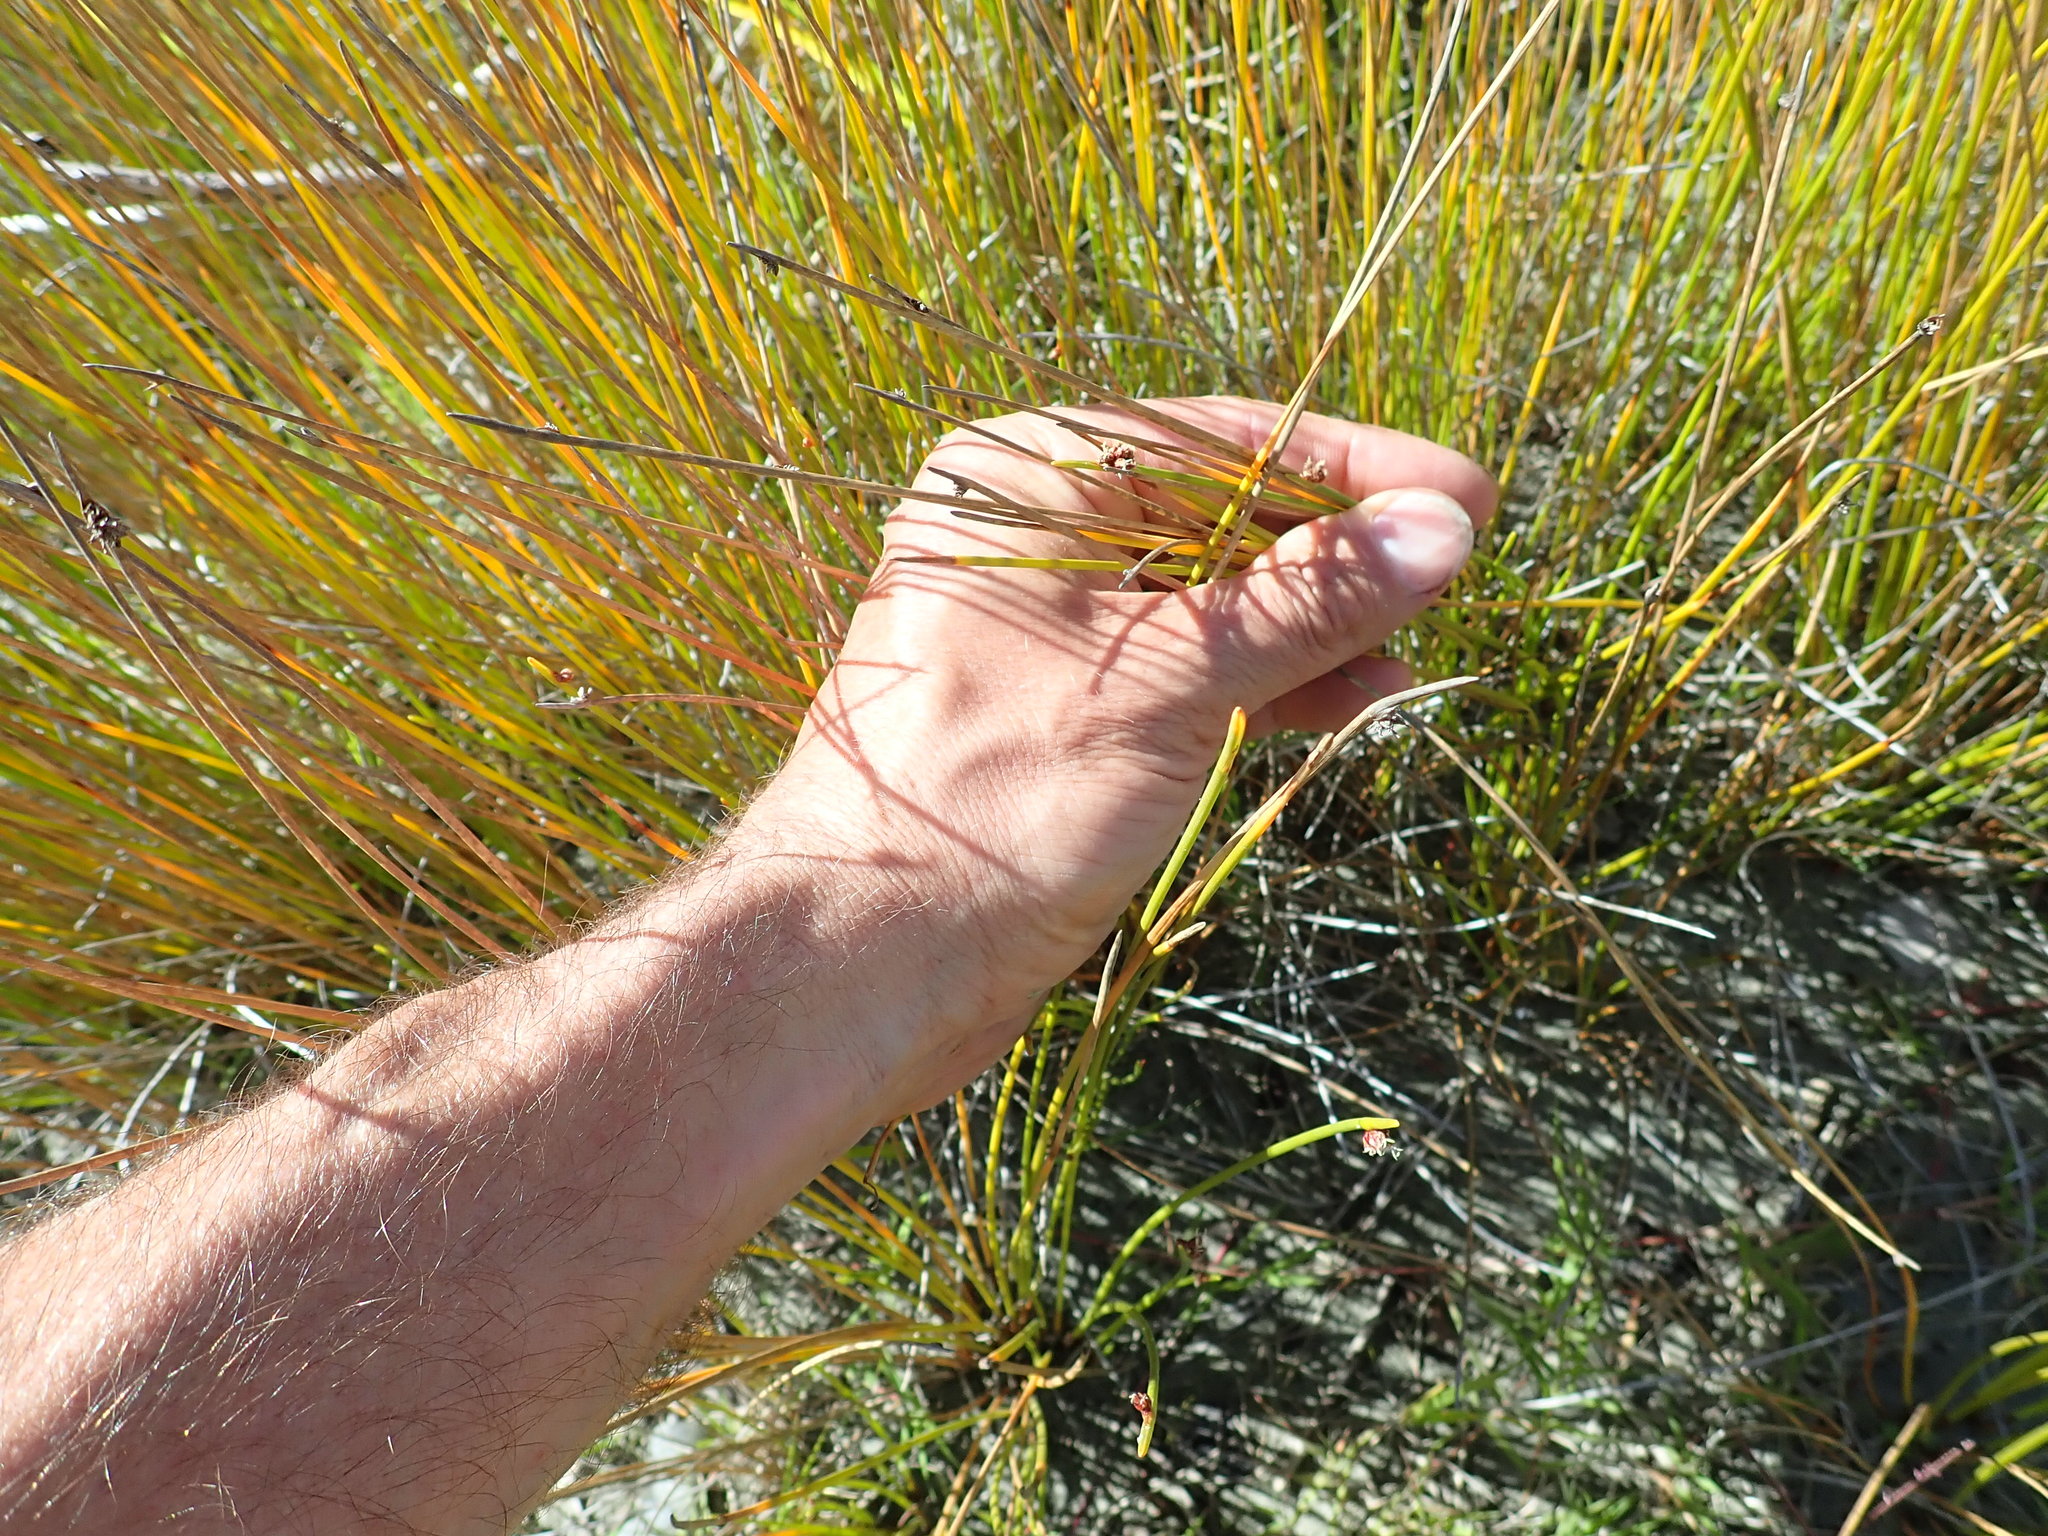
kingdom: Plantae
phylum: Tracheophyta
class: Liliopsida
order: Poales
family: Cyperaceae
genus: Ficinia
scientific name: Ficinia nodosa
